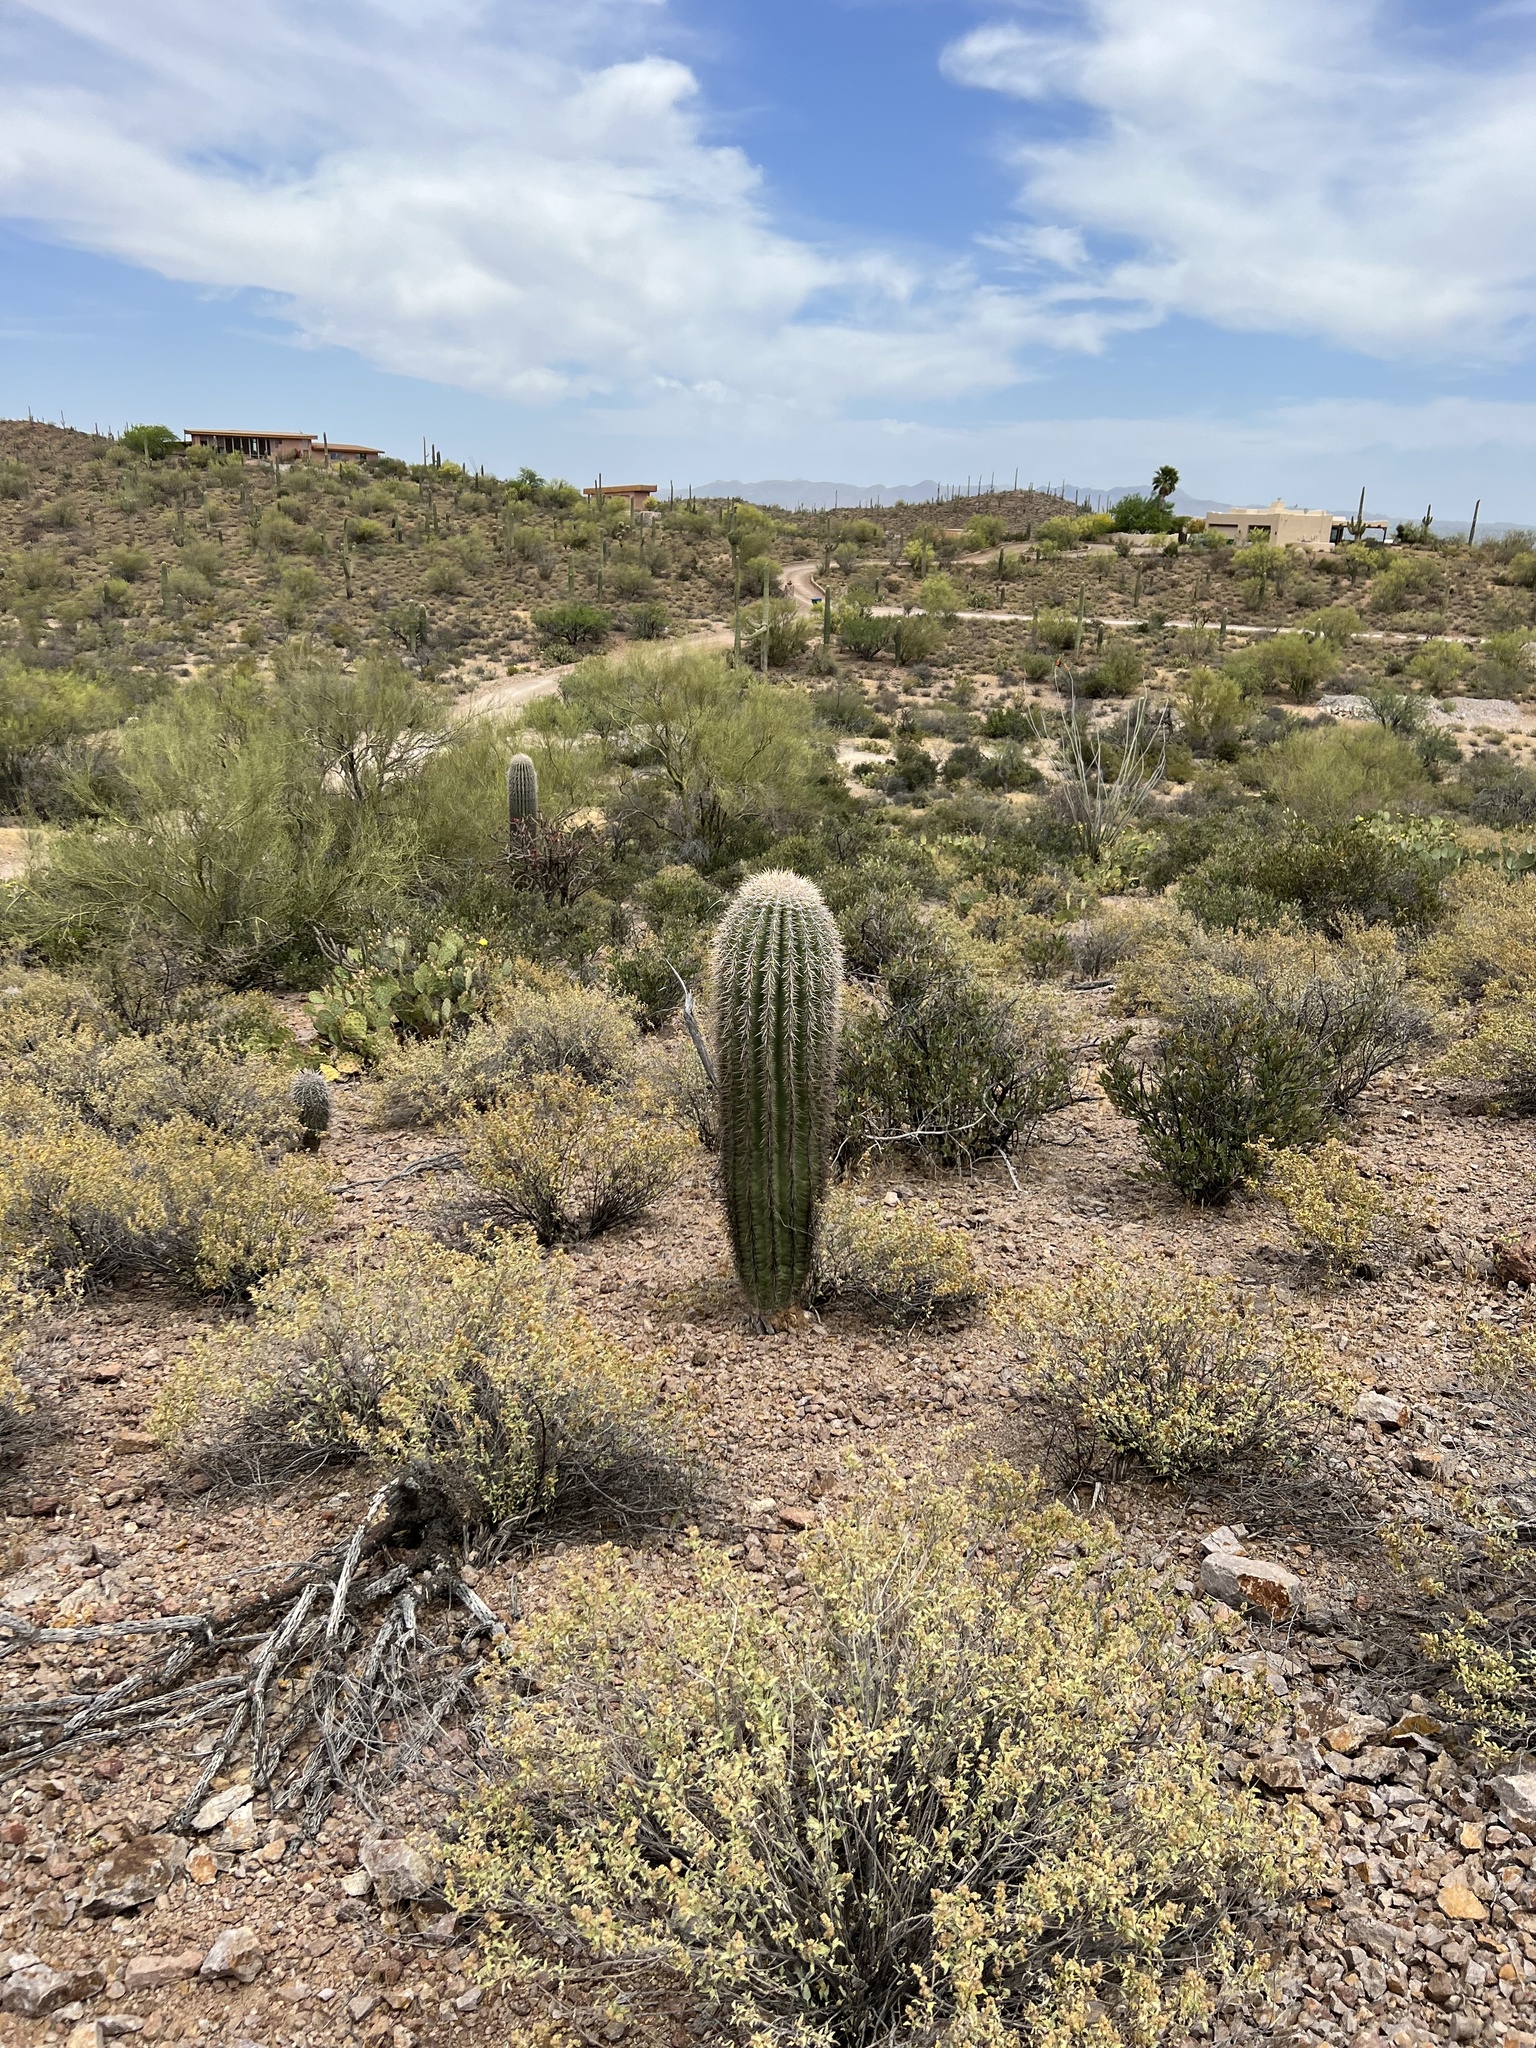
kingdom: Plantae
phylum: Tracheophyta
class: Magnoliopsida
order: Caryophyllales
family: Cactaceae
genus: Carnegiea
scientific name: Carnegiea gigantea
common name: Saguaro
